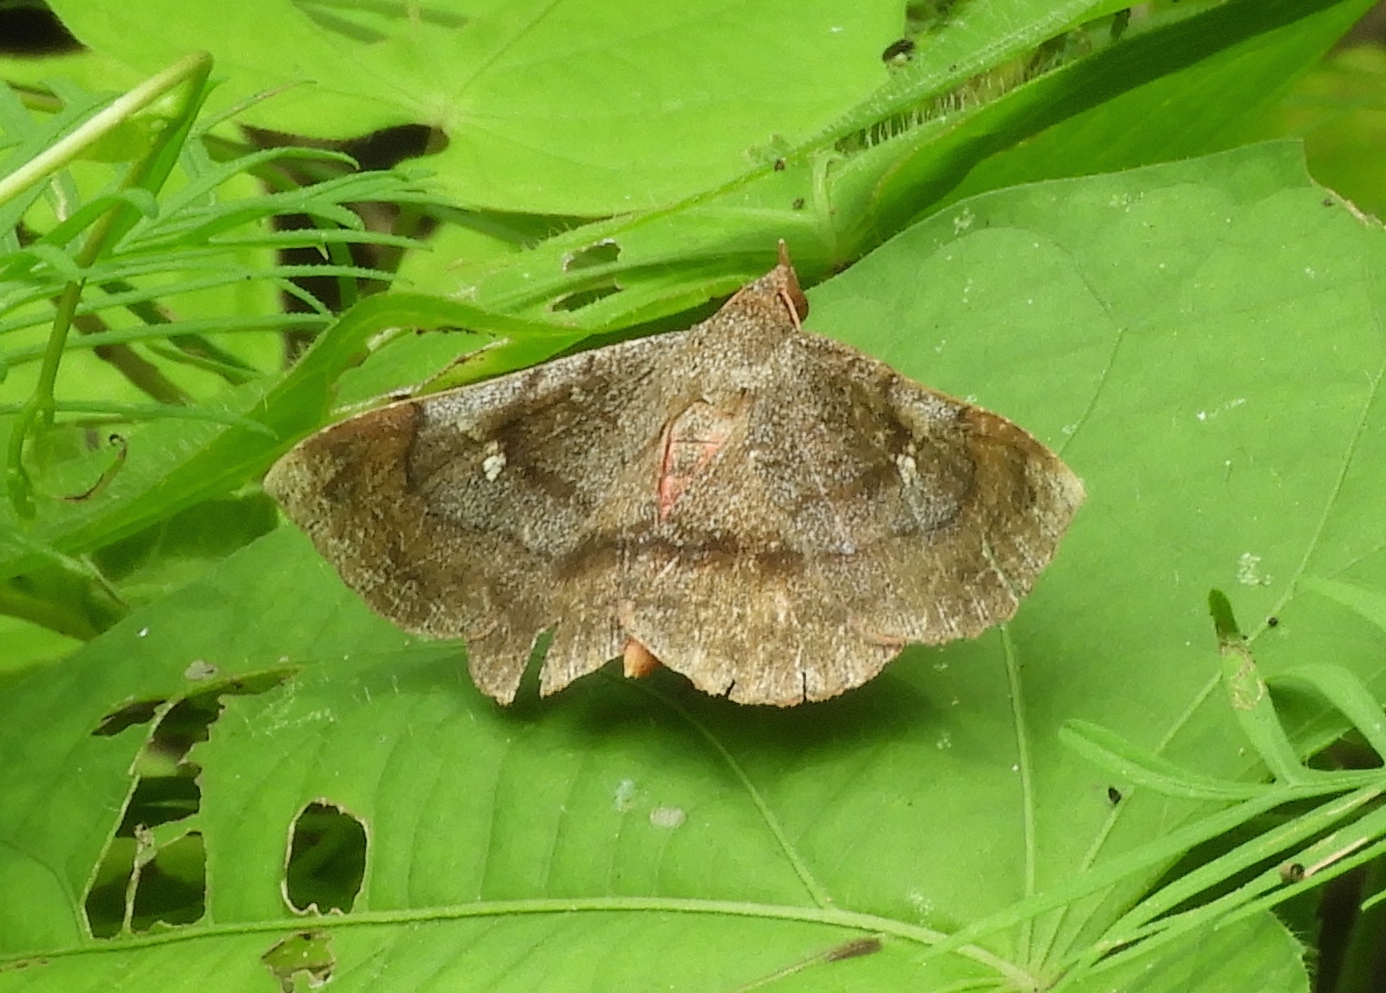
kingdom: Animalia
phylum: Arthropoda
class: Insecta
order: Lepidoptera
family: Erebidae
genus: Azeta
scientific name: Azeta
